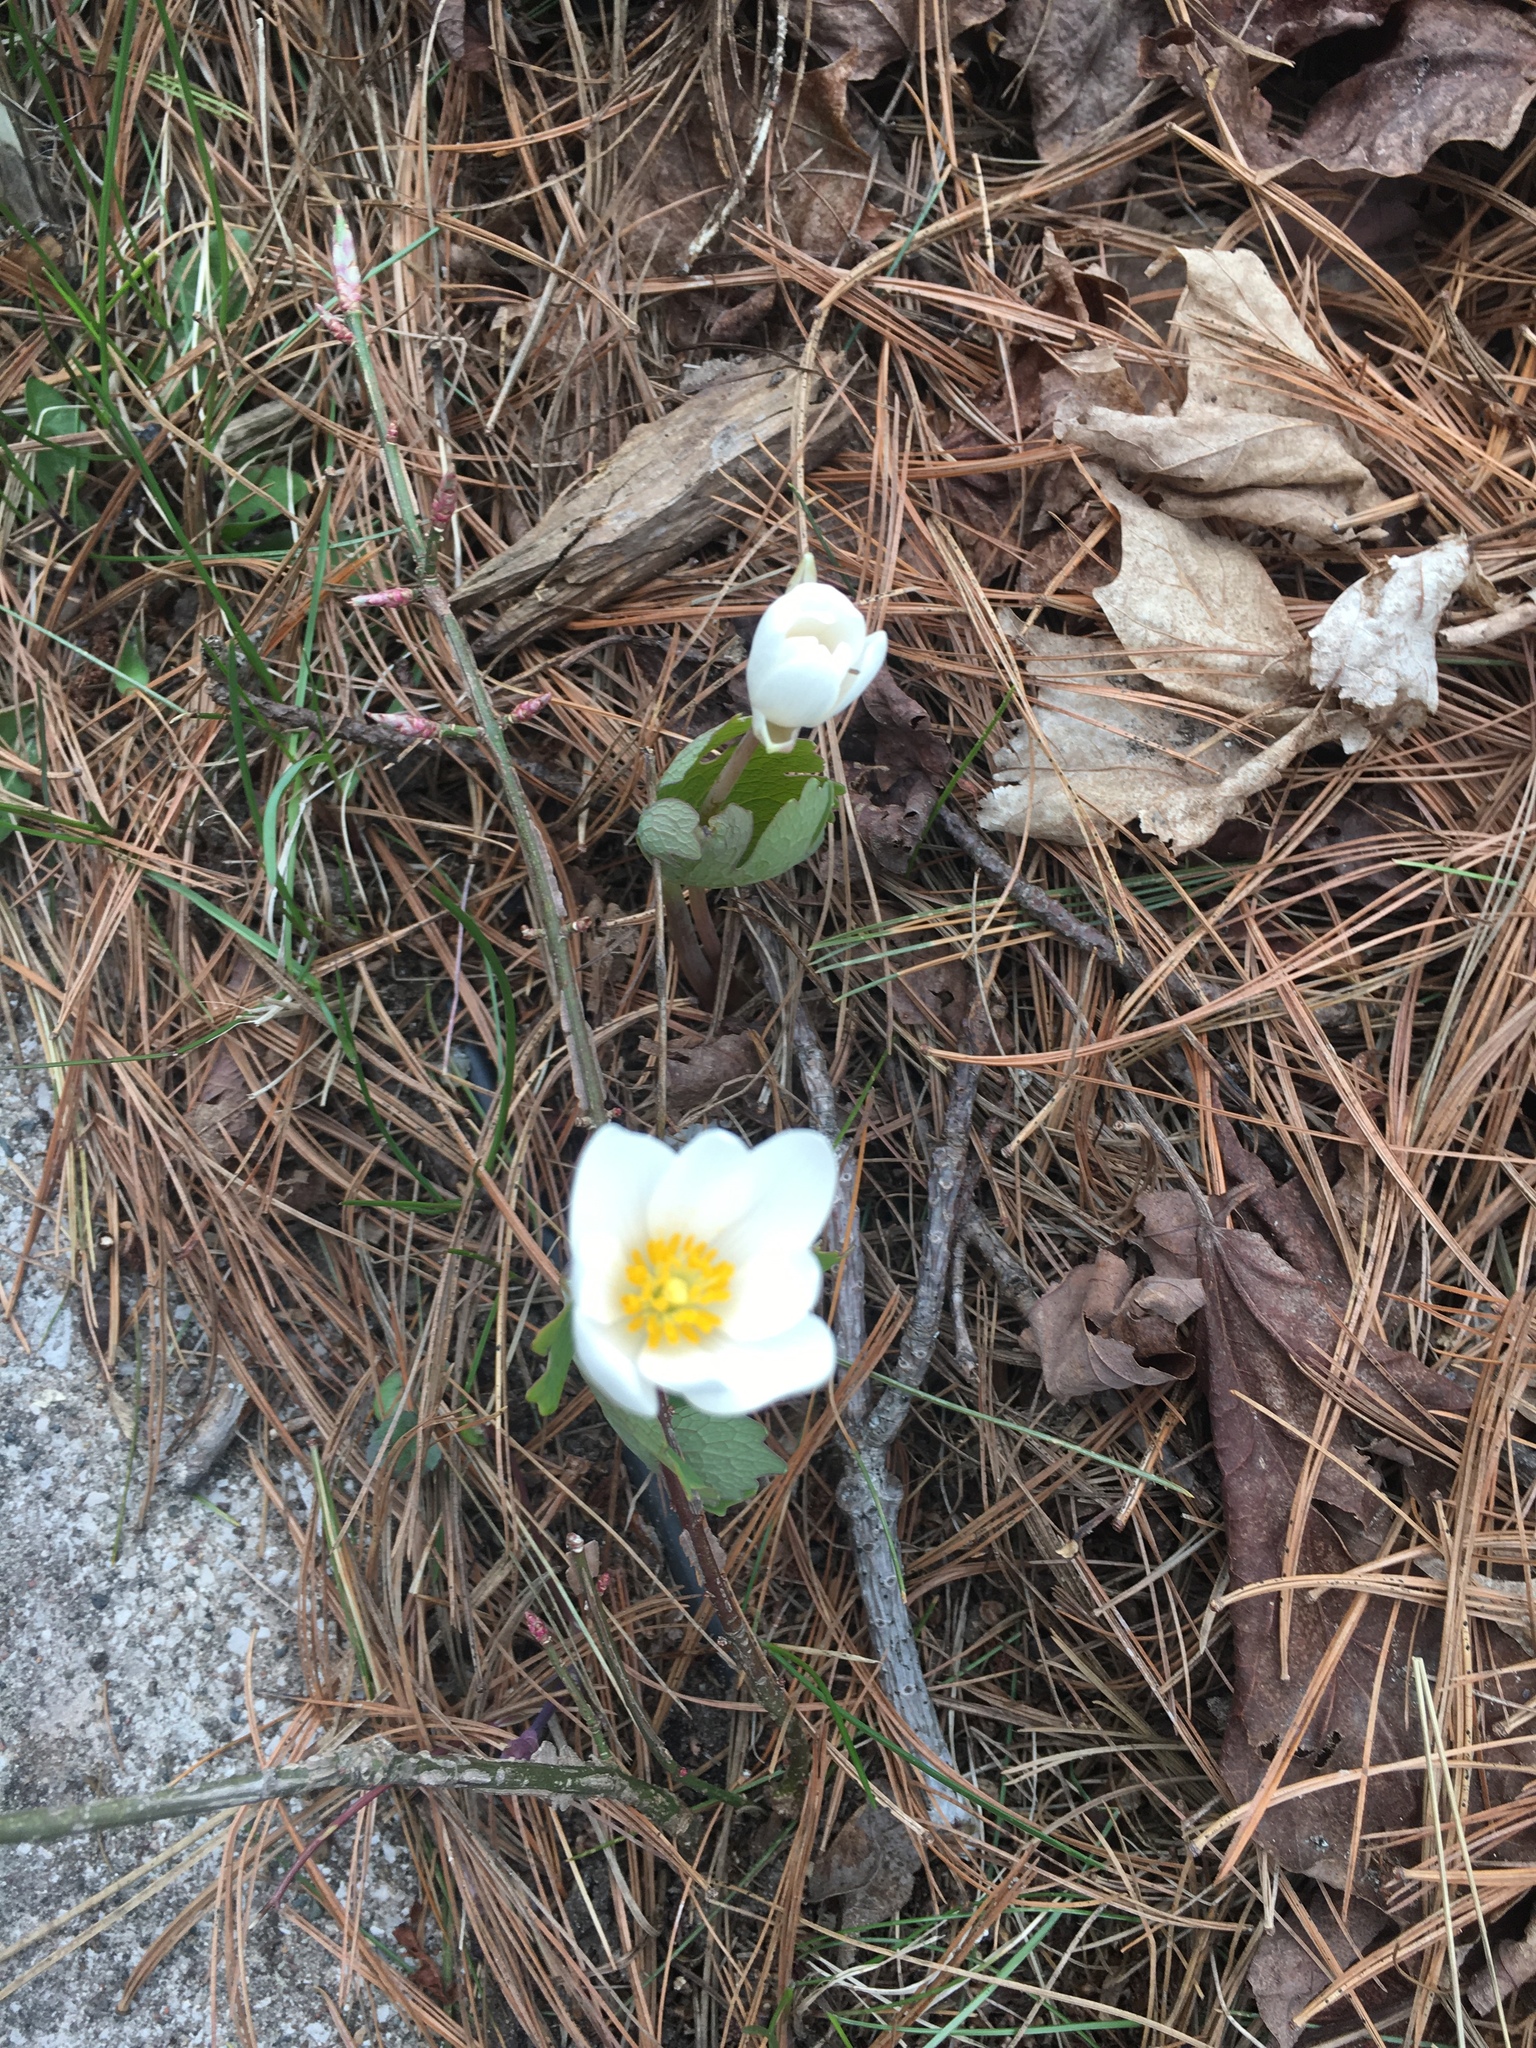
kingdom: Plantae
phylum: Tracheophyta
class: Magnoliopsida
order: Ranunculales
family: Papaveraceae
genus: Sanguinaria
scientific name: Sanguinaria canadensis
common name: Bloodroot
